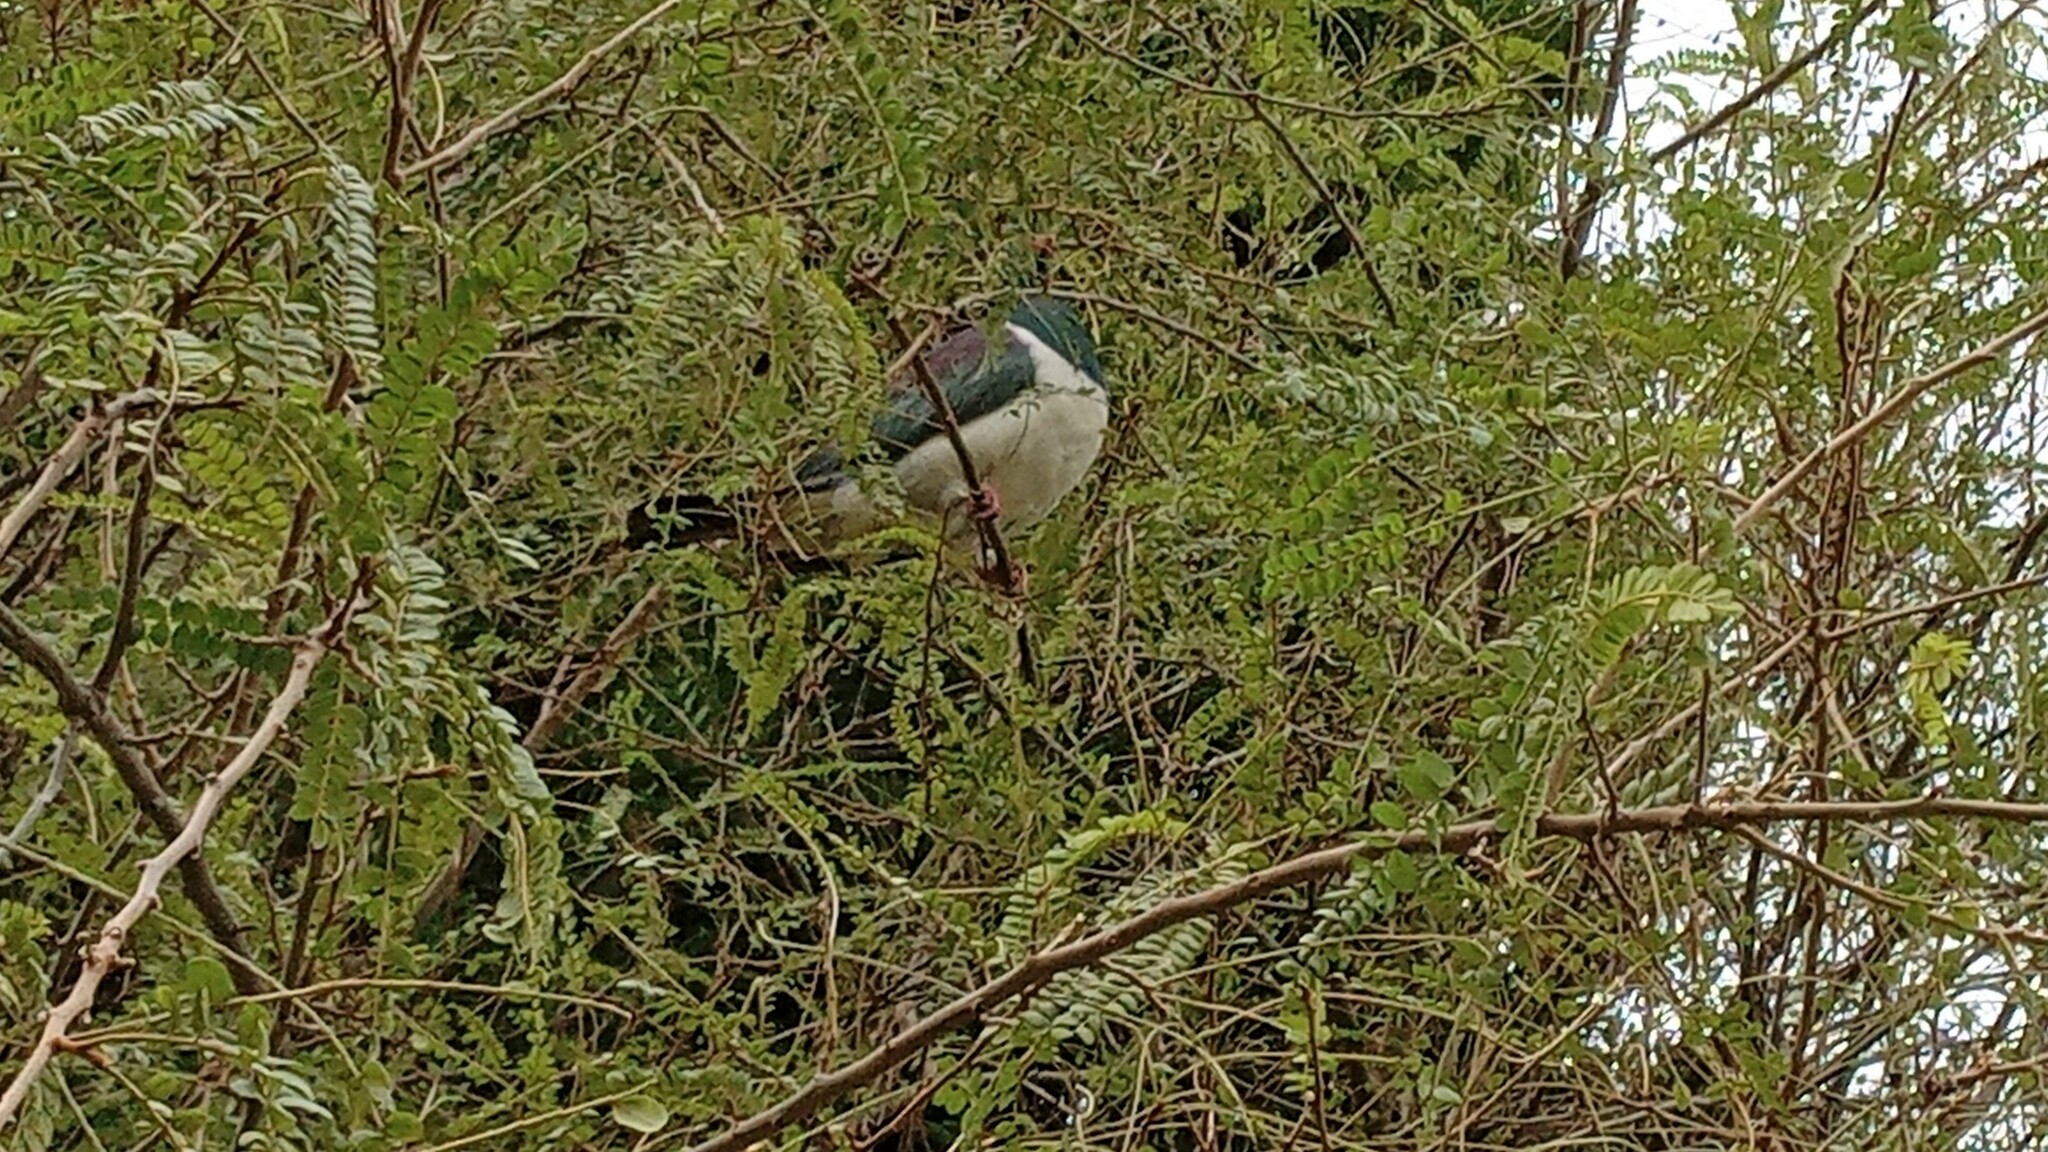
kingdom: Animalia
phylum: Chordata
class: Aves
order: Columbiformes
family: Columbidae
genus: Hemiphaga
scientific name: Hemiphaga novaeseelandiae
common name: New zealand pigeon
